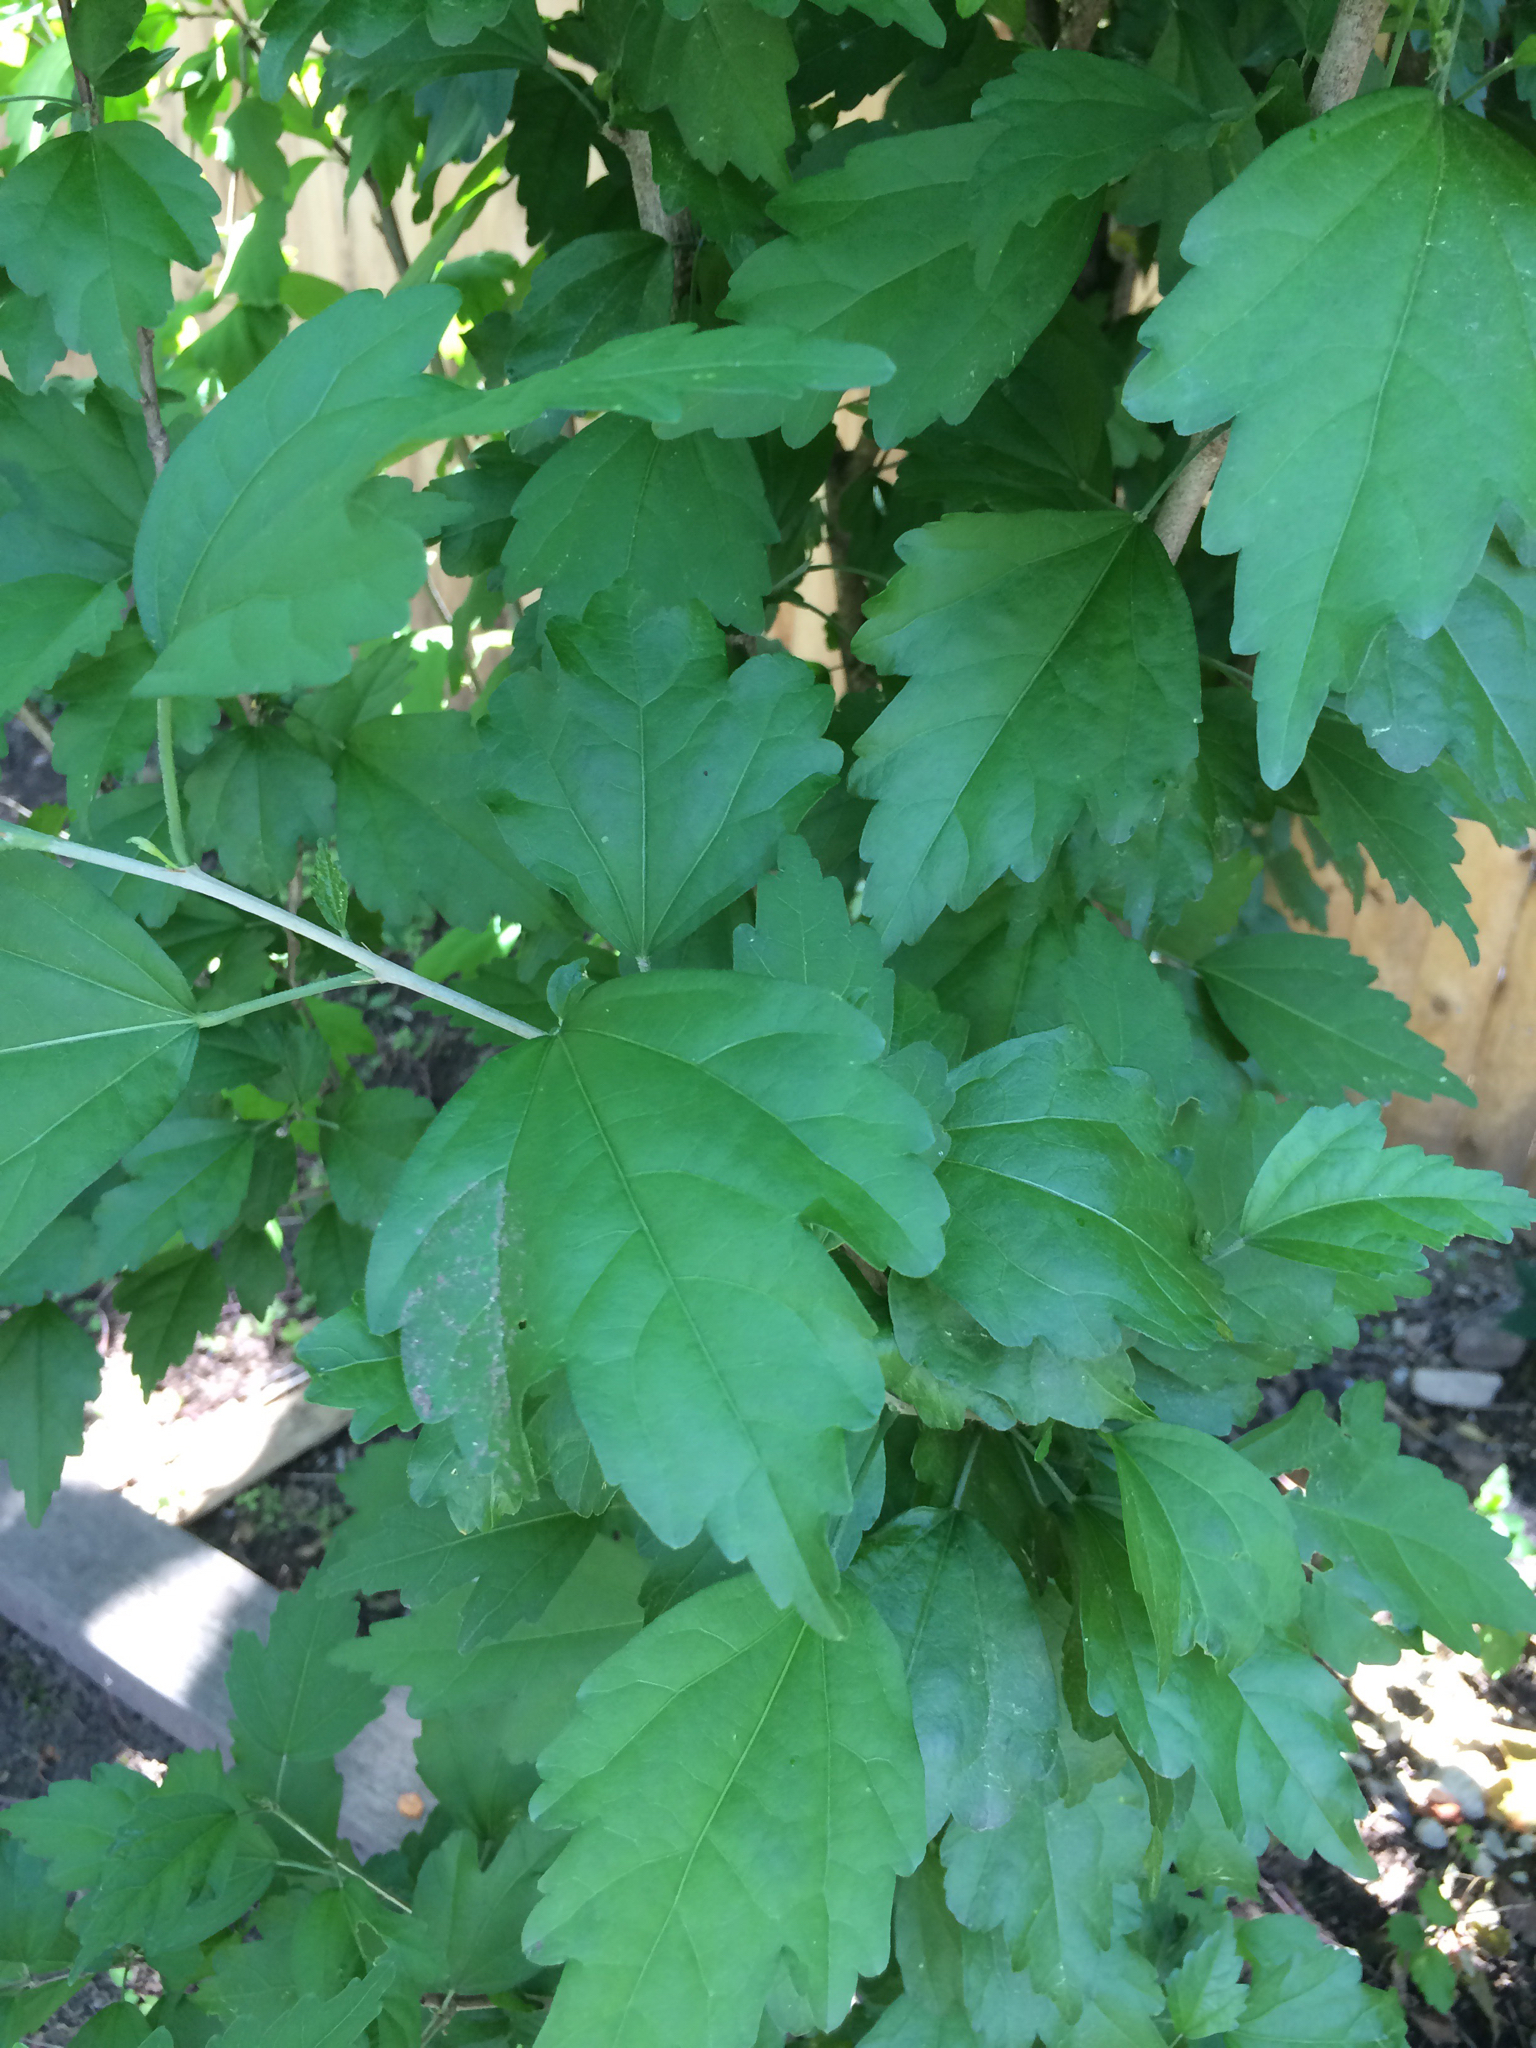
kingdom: Plantae
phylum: Tracheophyta
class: Magnoliopsida
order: Malvales
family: Malvaceae
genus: Hibiscus
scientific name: Hibiscus syriacus
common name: Syrian ketmia
